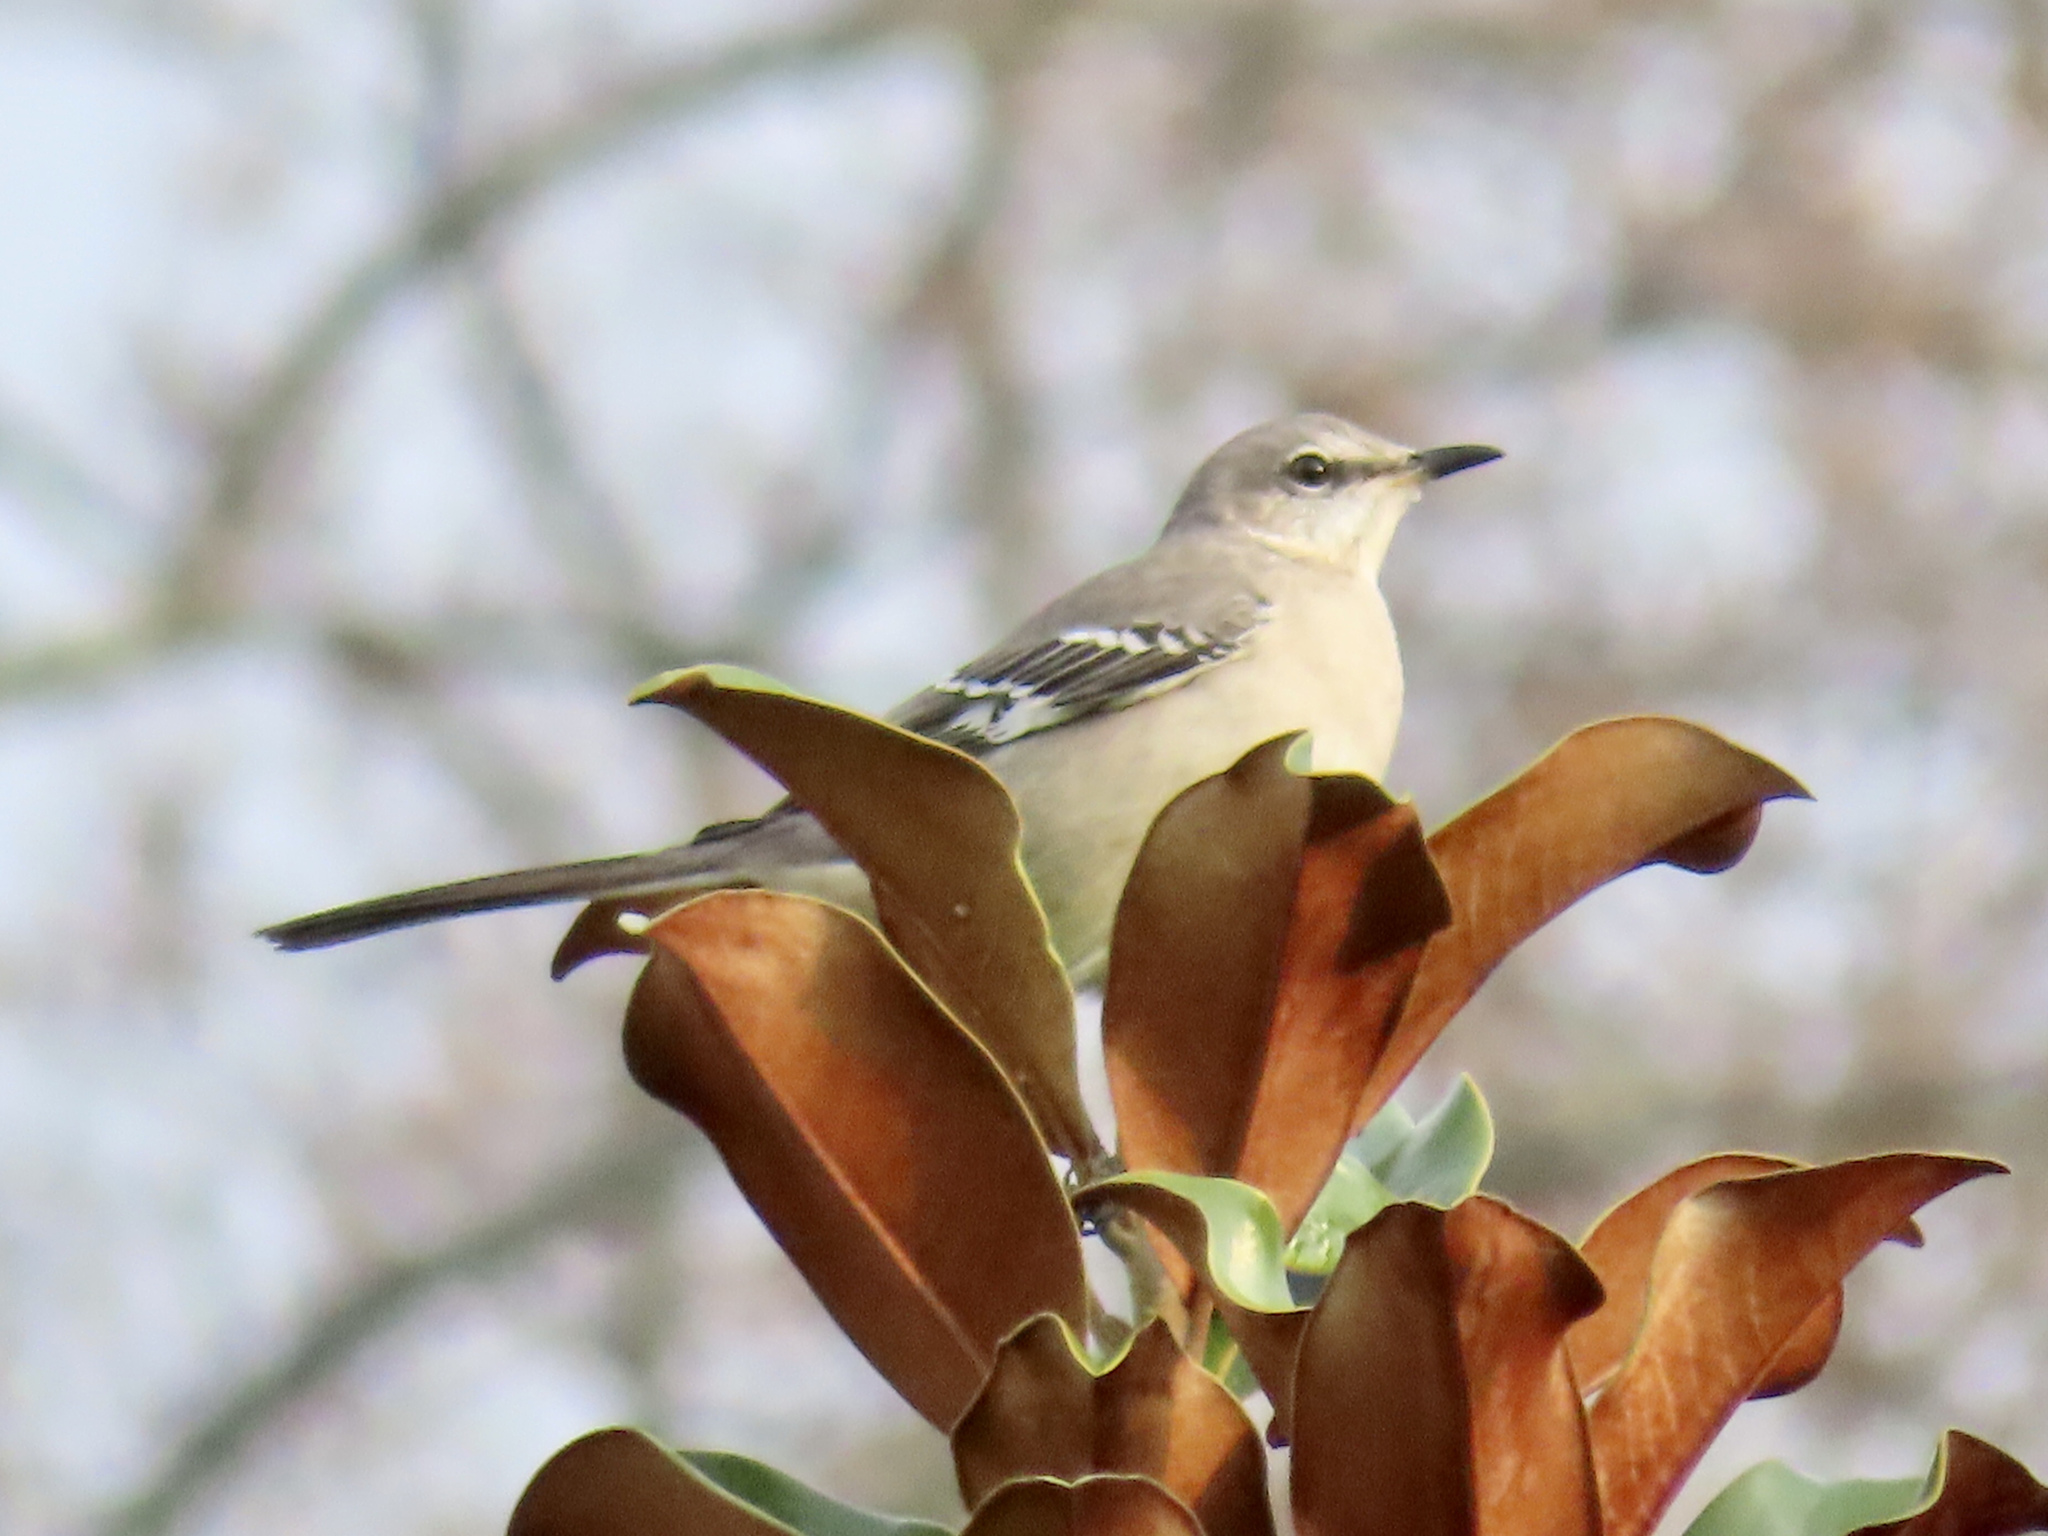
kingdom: Animalia
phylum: Chordata
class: Aves
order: Passeriformes
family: Mimidae
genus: Mimus
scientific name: Mimus polyglottos
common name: Northern mockingbird
